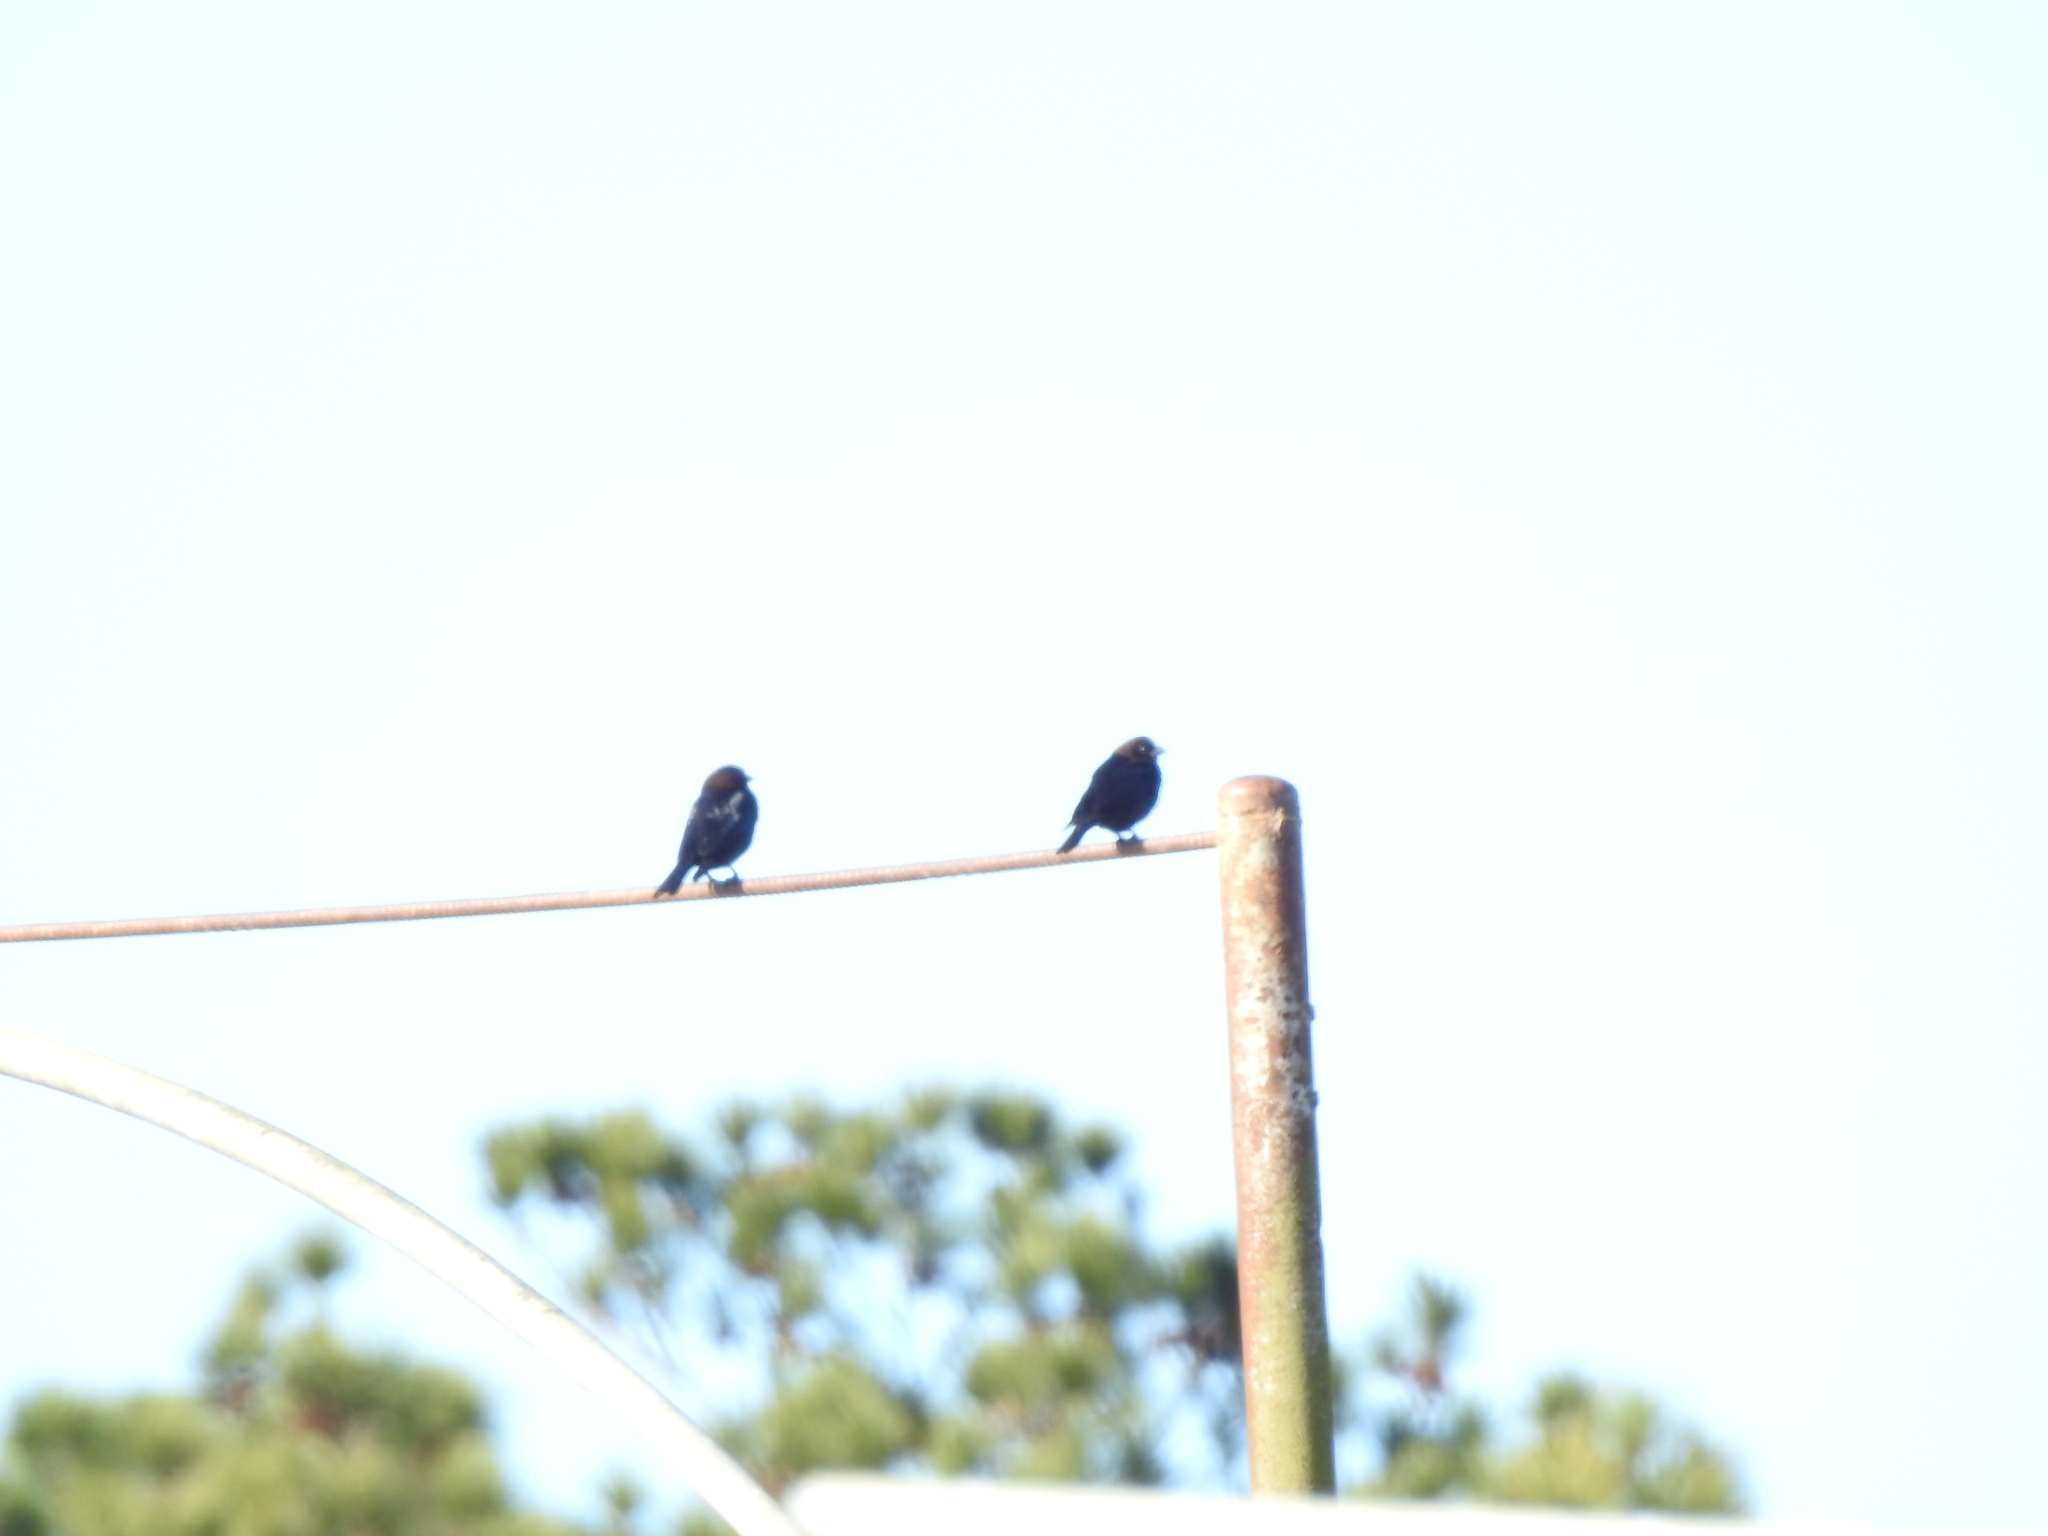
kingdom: Animalia
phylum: Chordata
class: Aves
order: Passeriformes
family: Icteridae
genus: Molothrus
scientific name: Molothrus ater
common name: Brown-headed cowbird
